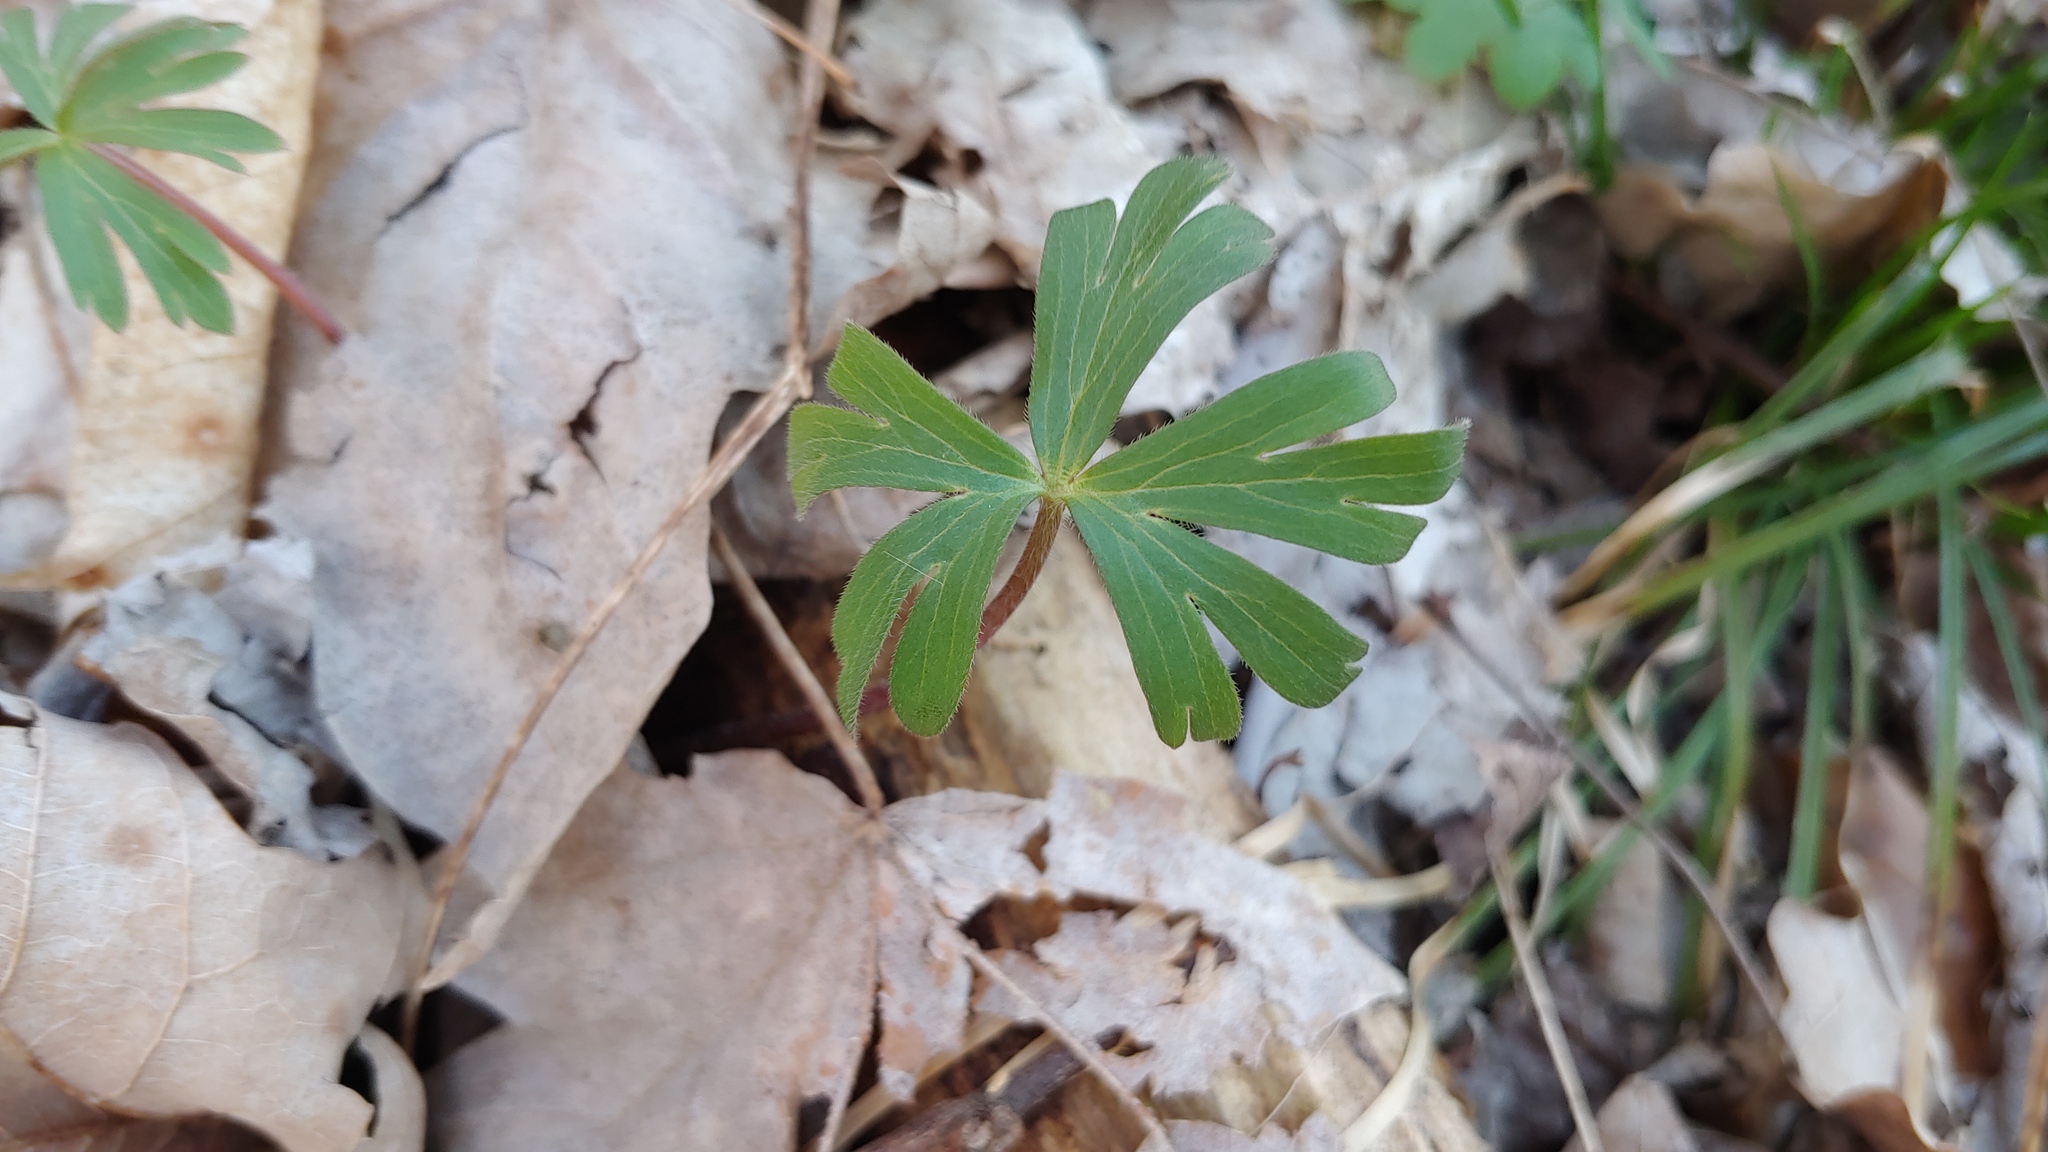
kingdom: Plantae
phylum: Tracheophyta
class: Magnoliopsida
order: Ranunculales
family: Ranunculaceae
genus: Delphinium
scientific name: Delphinium tricorne
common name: Dwarf larkspur
